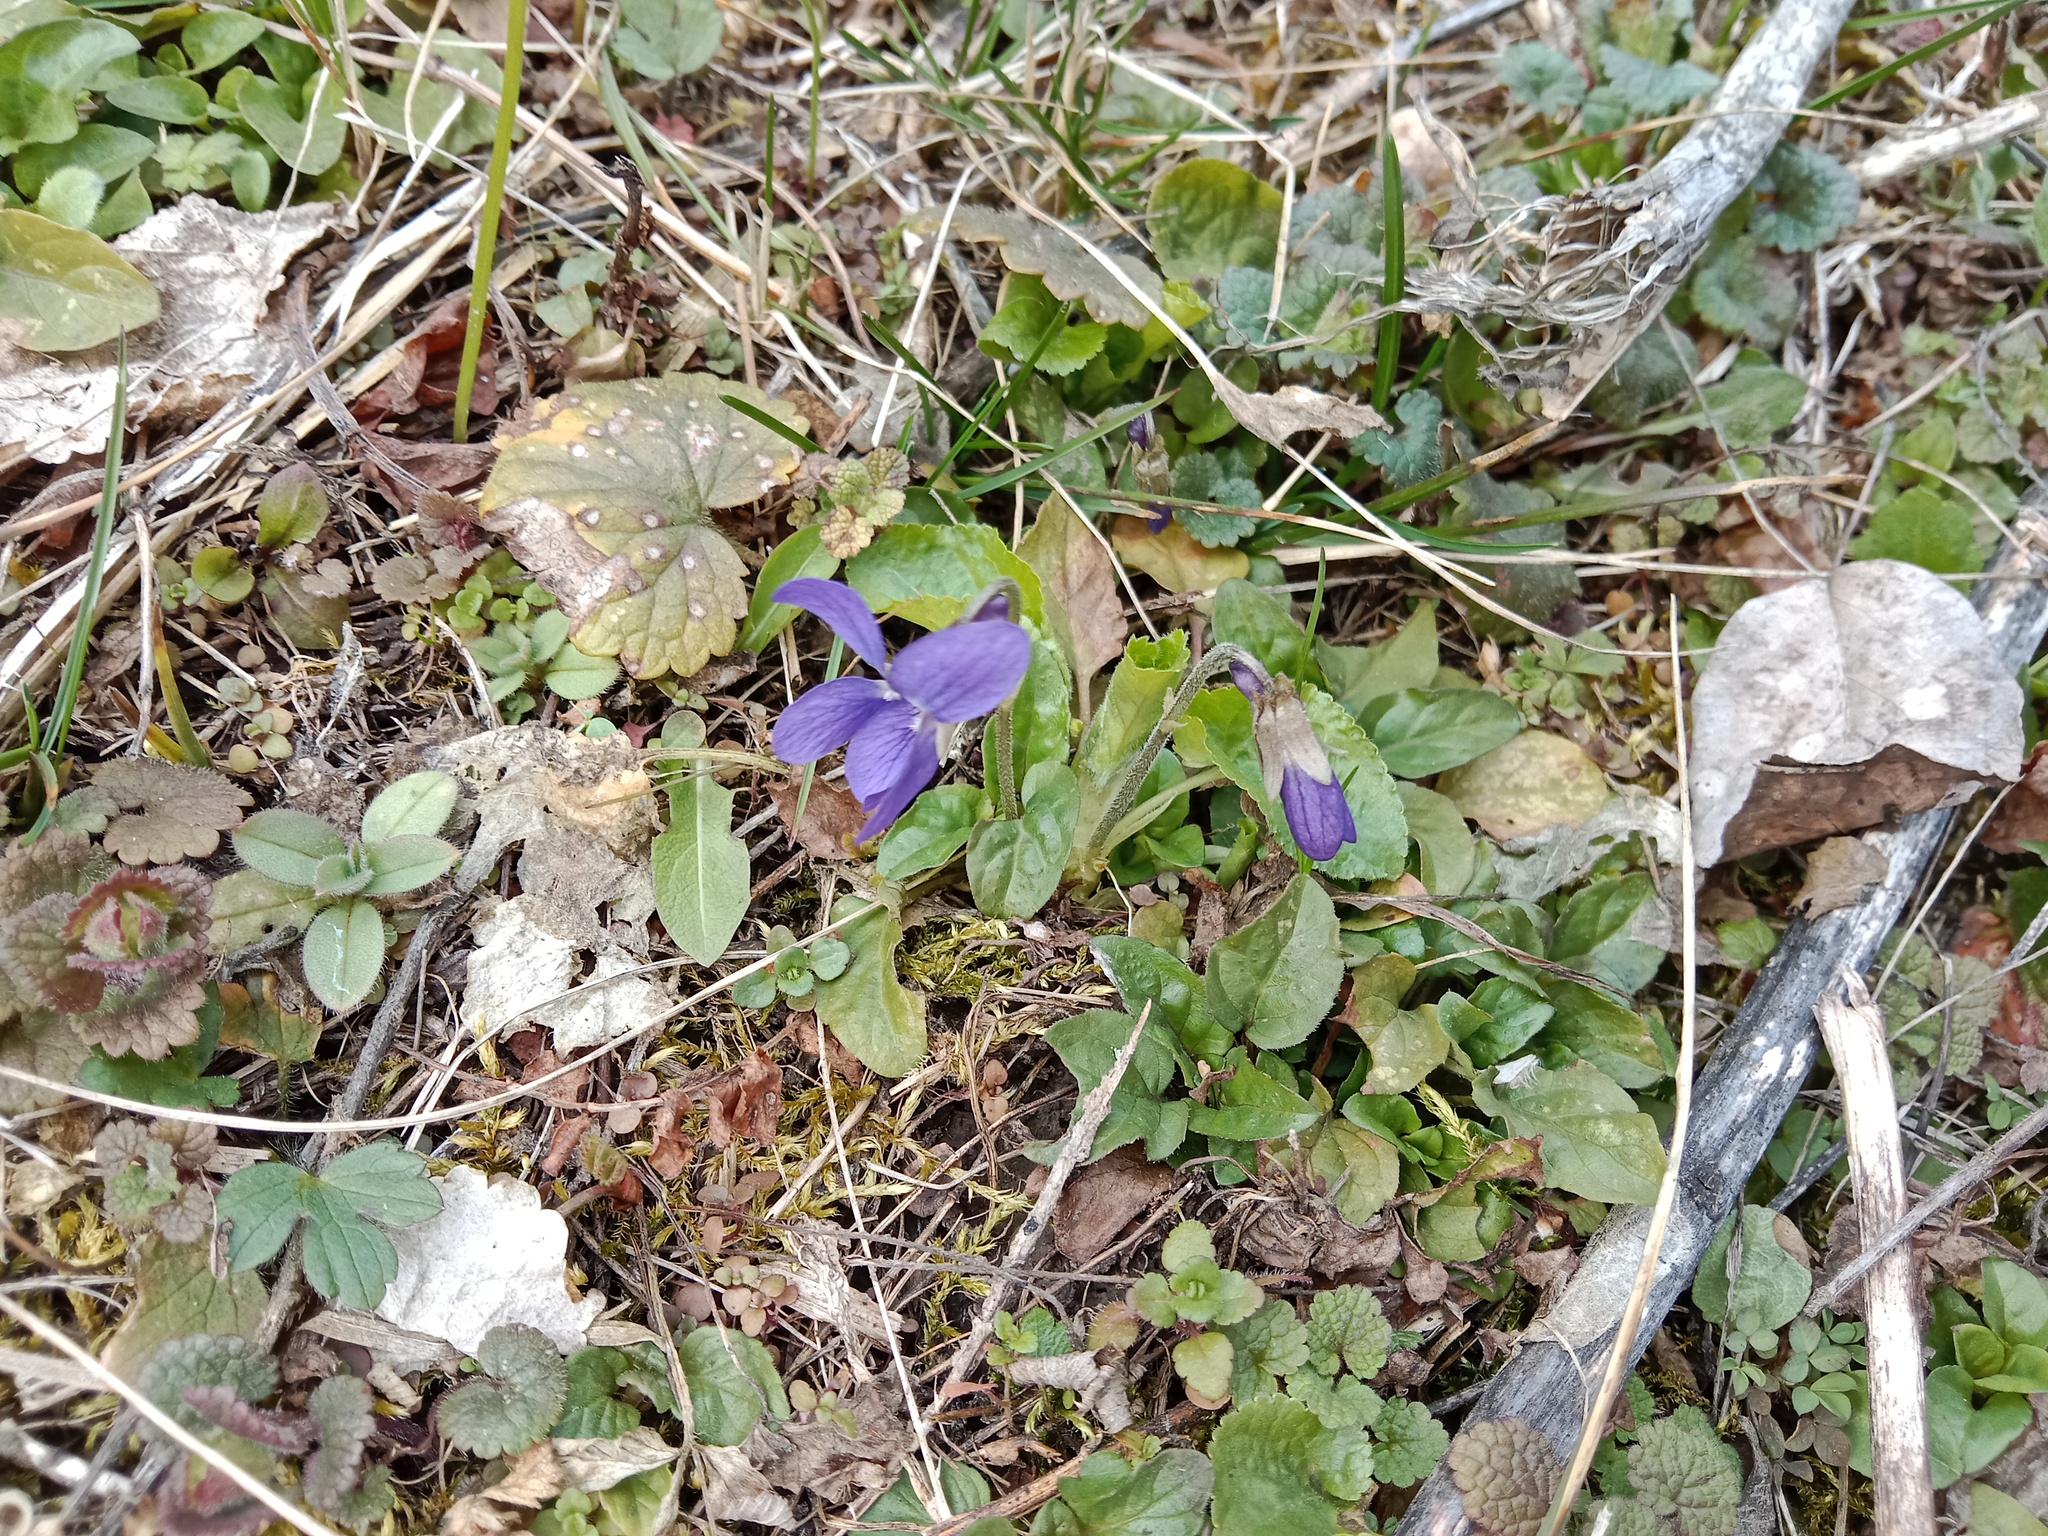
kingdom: Plantae
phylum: Tracheophyta
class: Magnoliopsida
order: Malpighiales
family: Violaceae
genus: Viola
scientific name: Viola collina
